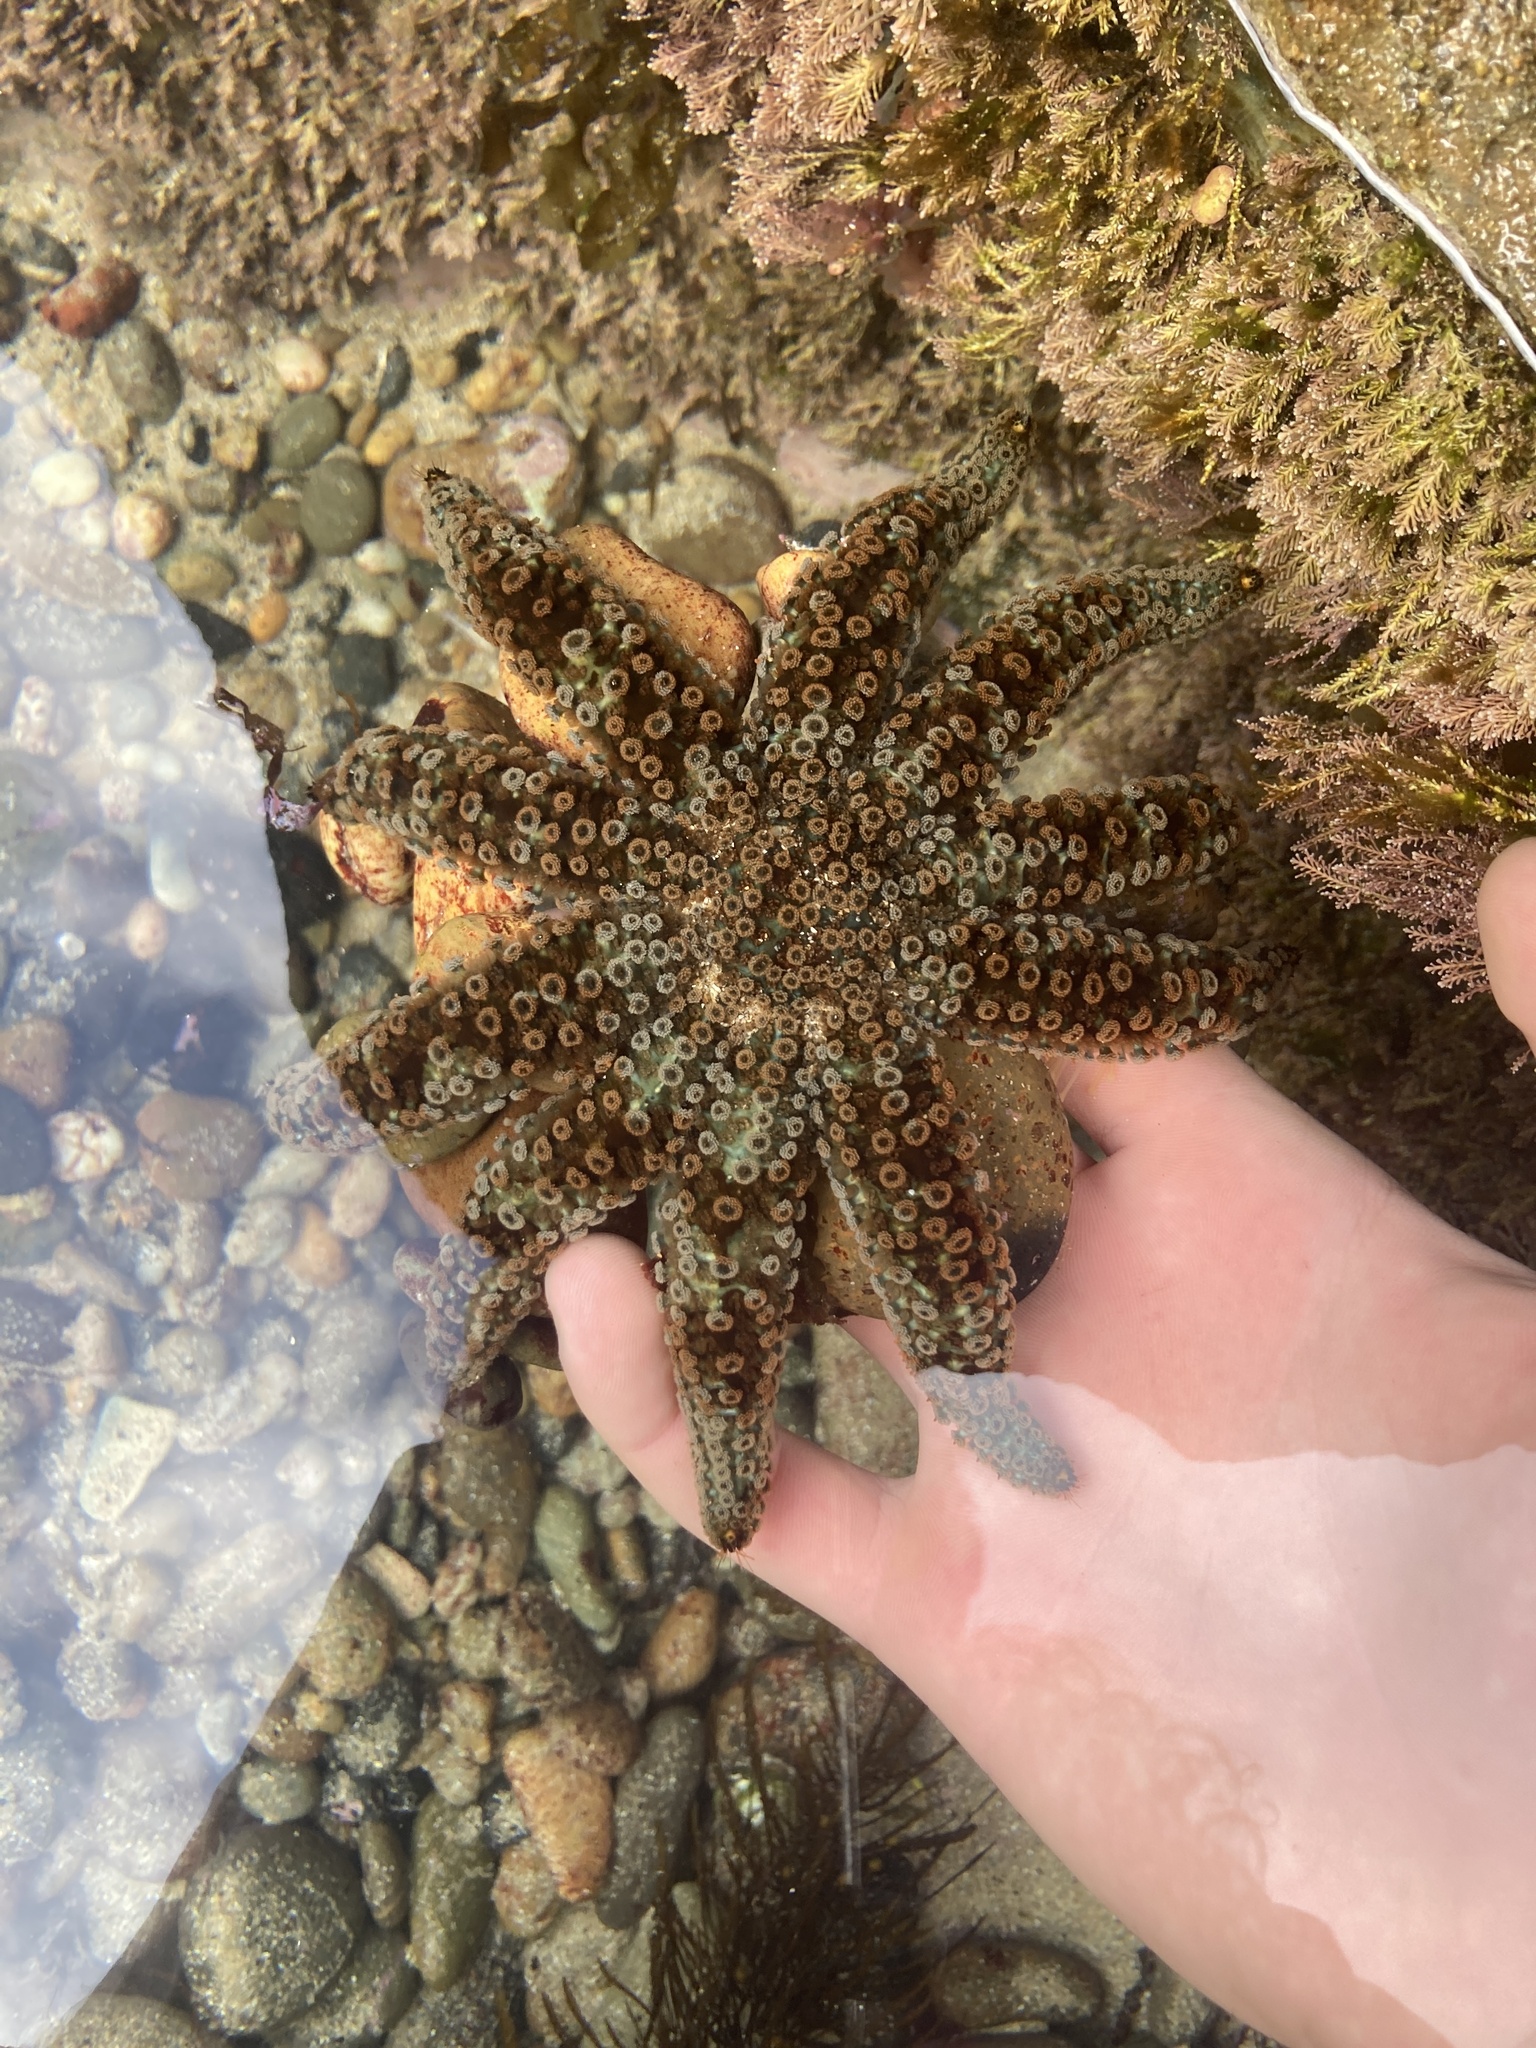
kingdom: Animalia
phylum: Echinodermata
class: Asteroidea
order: Forcipulatida
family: Asteriidae
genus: Coscinasterias
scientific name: Coscinasterias muricata
